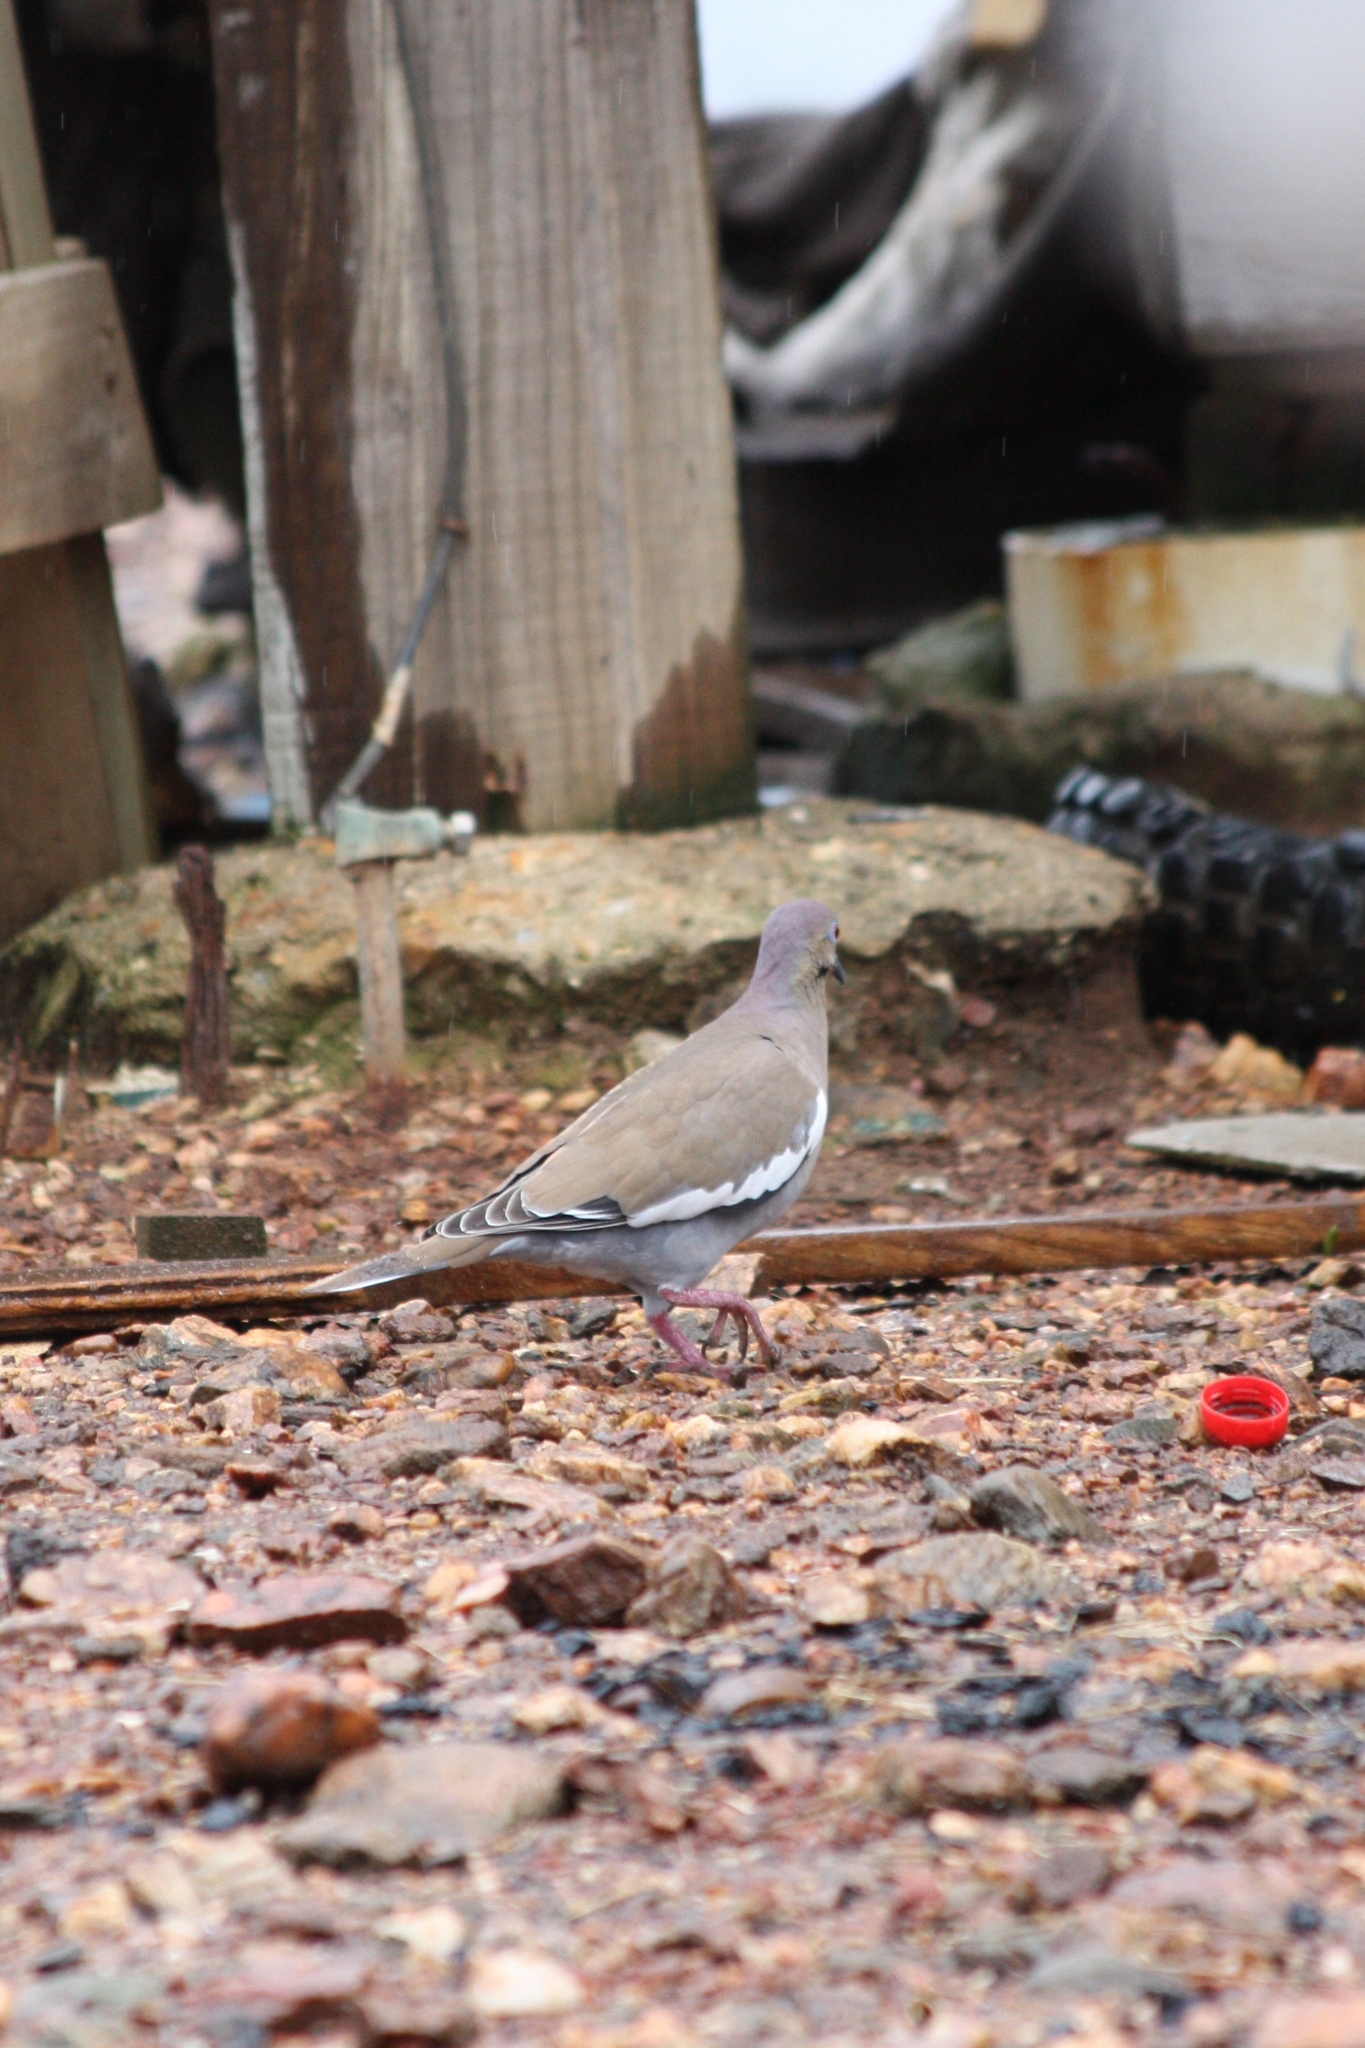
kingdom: Animalia
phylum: Chordata
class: Aves
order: Columbiformes
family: Columbidae
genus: Zenaida
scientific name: Zenaida asiatica
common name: White-winged dove
